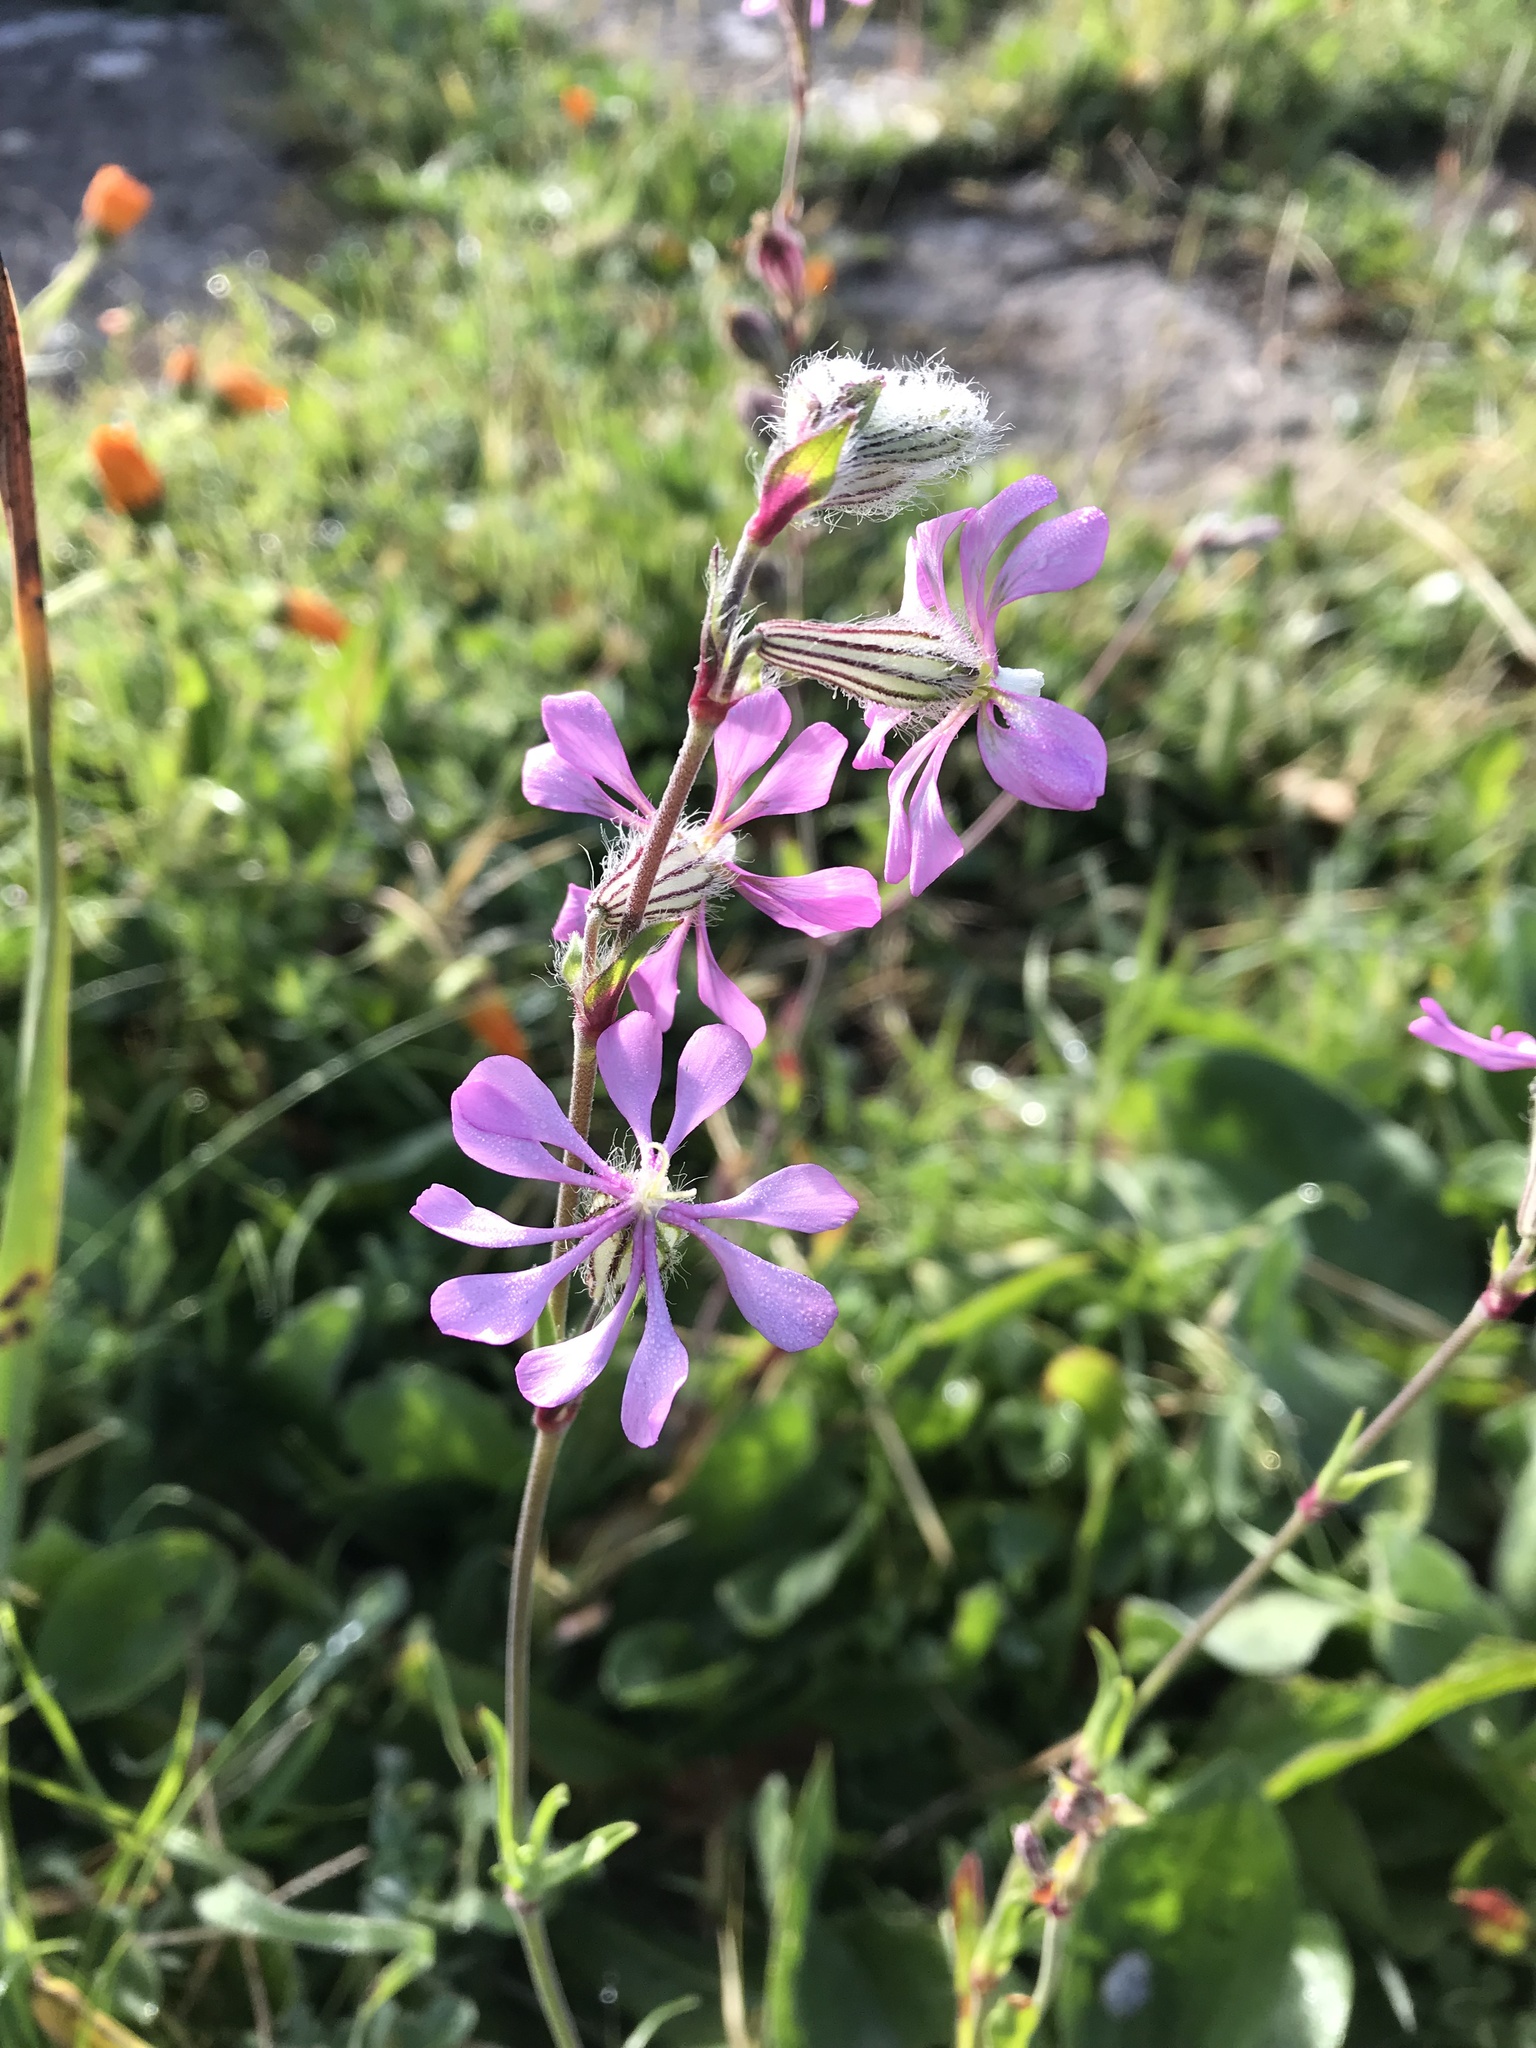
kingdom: Plantae
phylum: Tracheophyta
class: Magnoliopsida
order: Caryophyllales
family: Caryophyllaceae
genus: Silene
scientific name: Silene colorata
